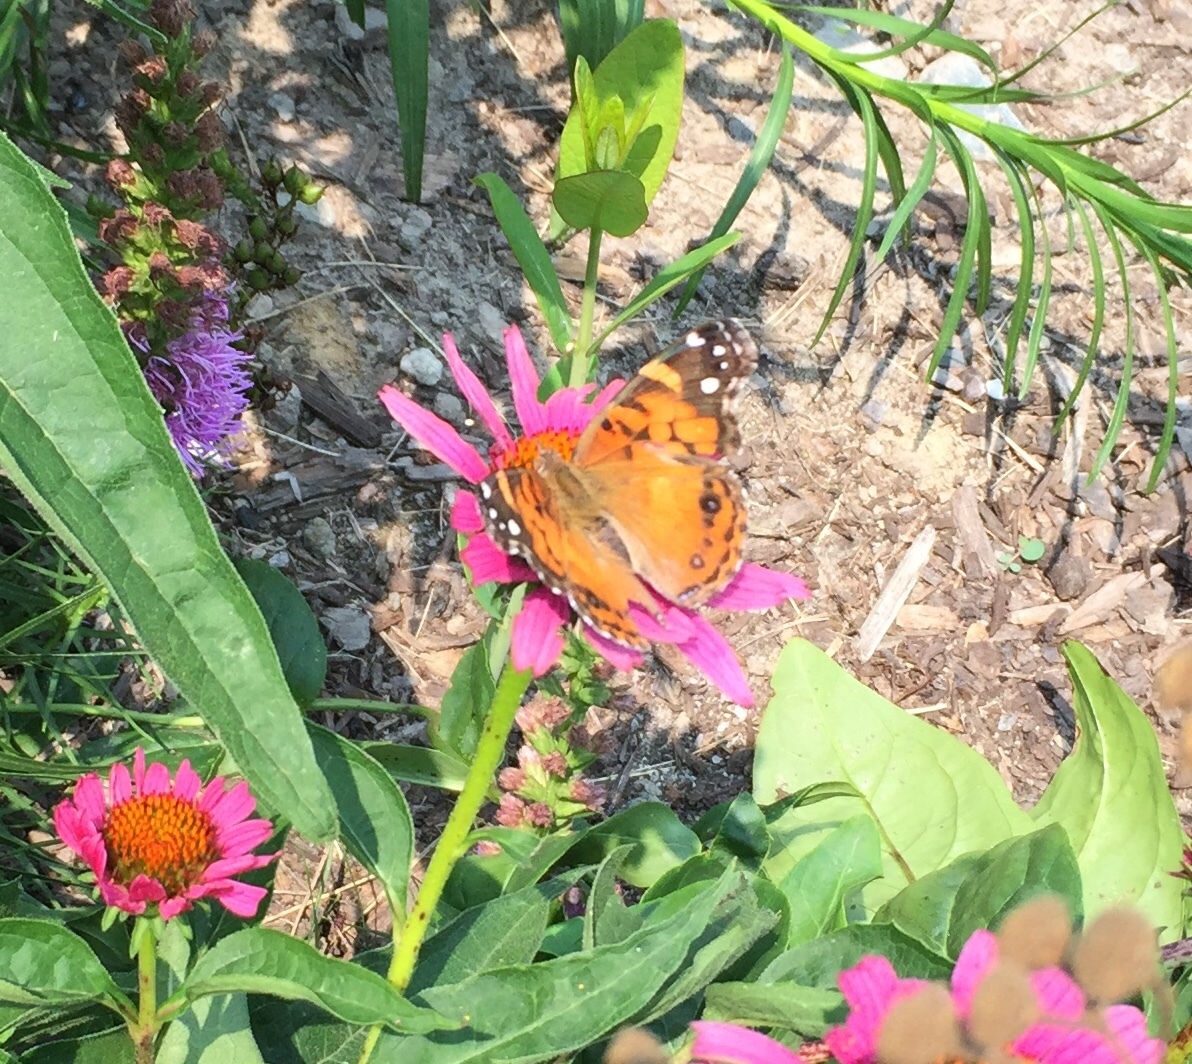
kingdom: Animalia
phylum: Arthropoda
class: Insecta
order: Lepidoptera
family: Nymphalidae
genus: Vanessa
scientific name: Vanessa virginiensis
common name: American lady
